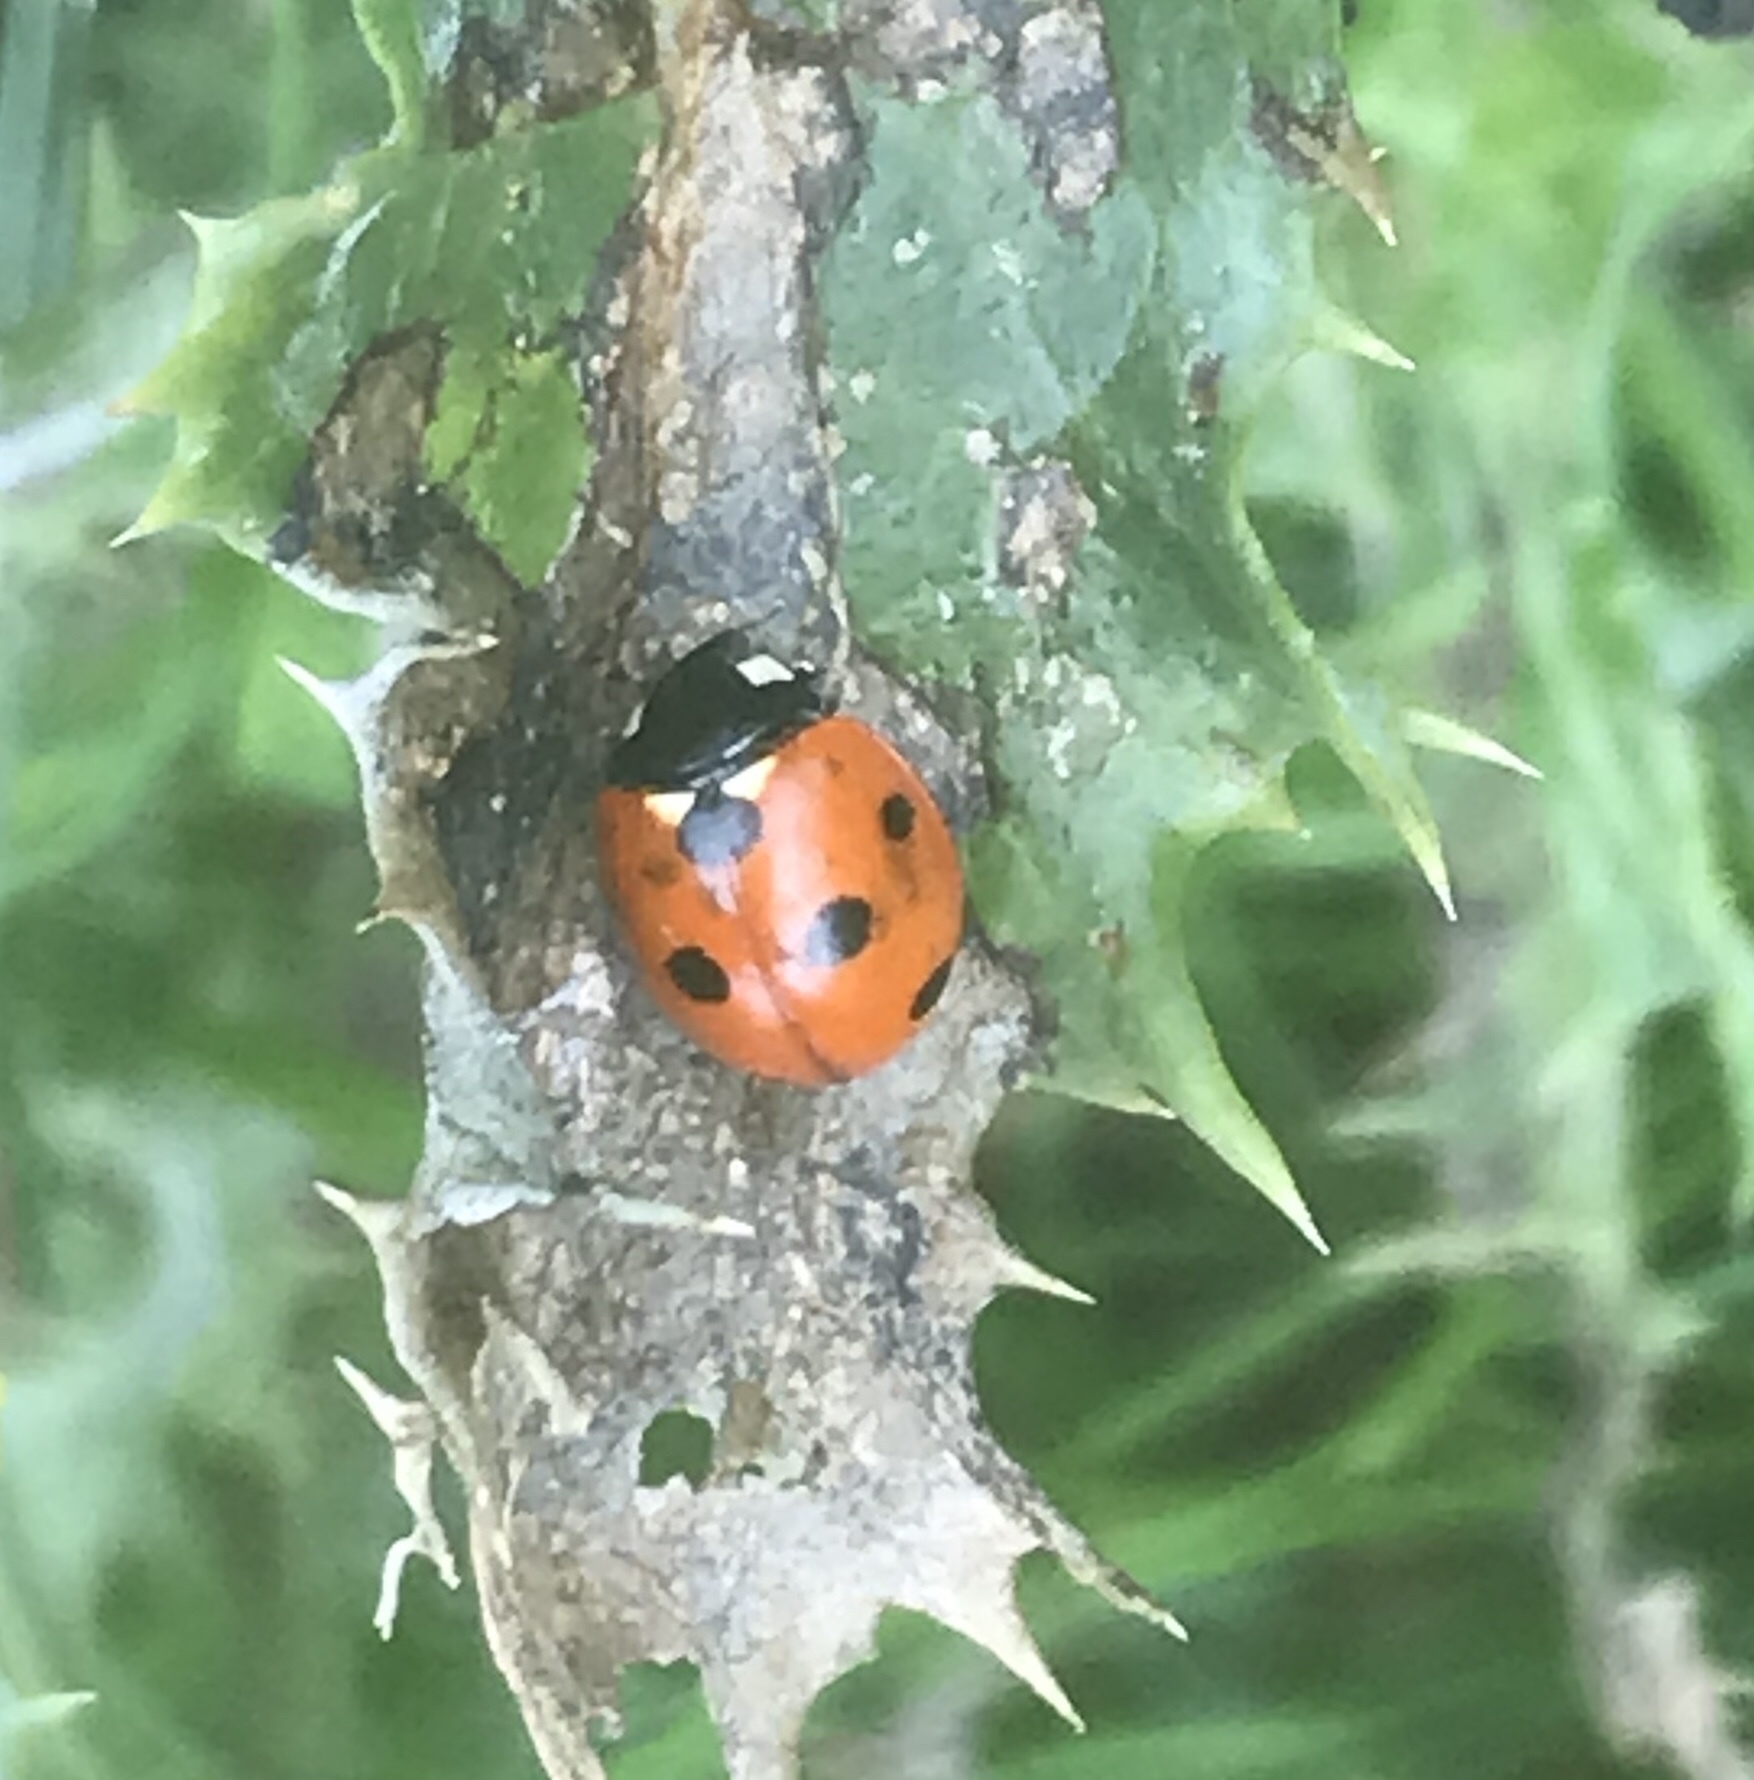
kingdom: Animalia
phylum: Arthropoda
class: Insecta
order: Coleoptera
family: Coccinellidae
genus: Coccinella
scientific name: Coccinella septempunctata
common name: Sevenspotted lady beetle
